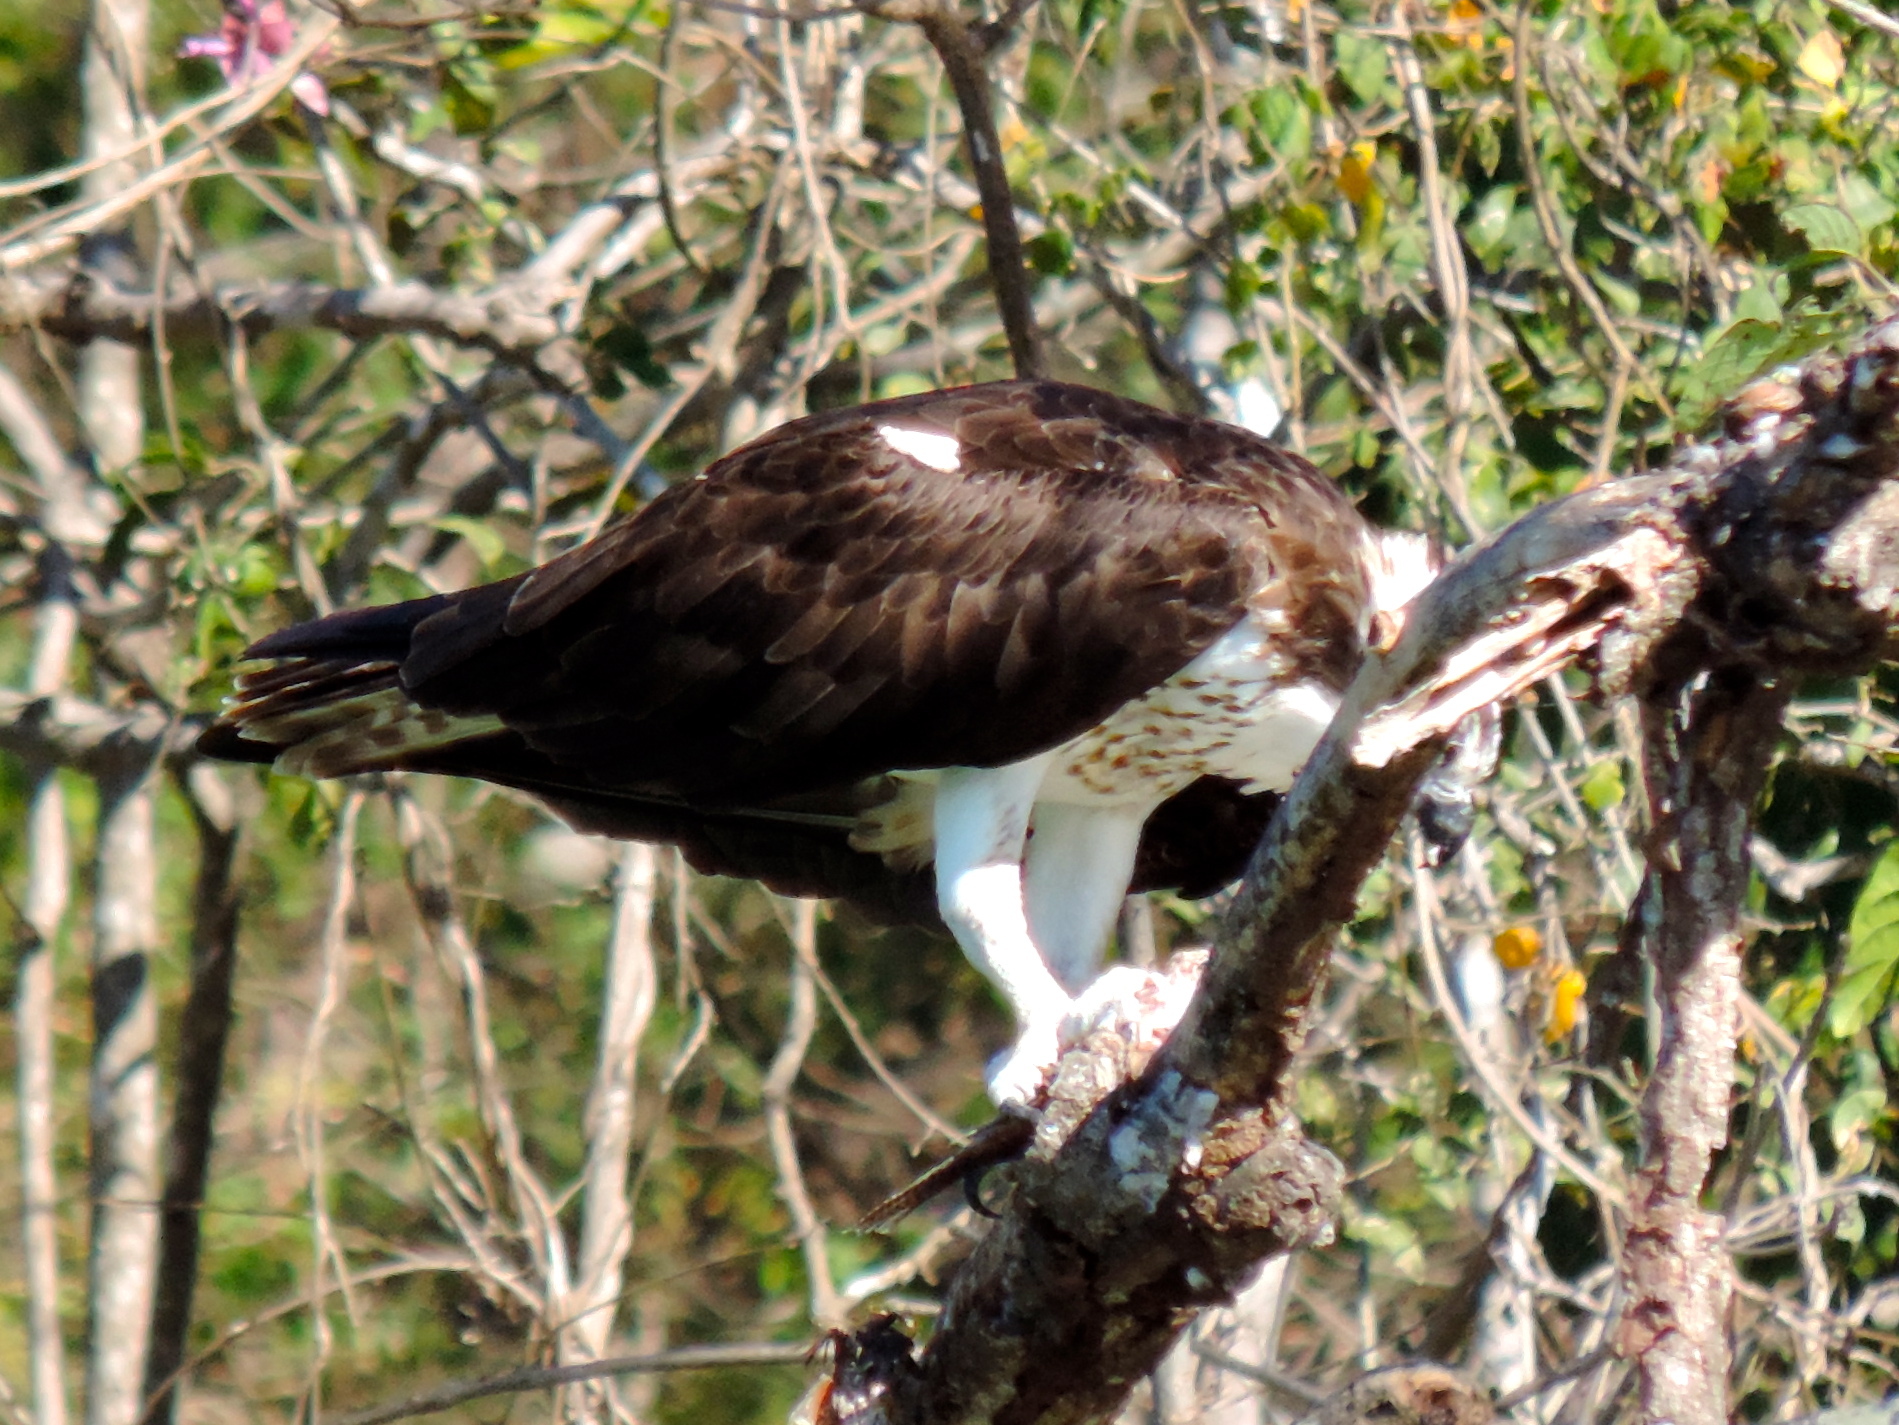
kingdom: Animalia
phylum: Chordata
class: Aves
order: Accipitriformes
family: Pandionidae
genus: Pandion
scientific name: Pandion haliaetus
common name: Osprey
